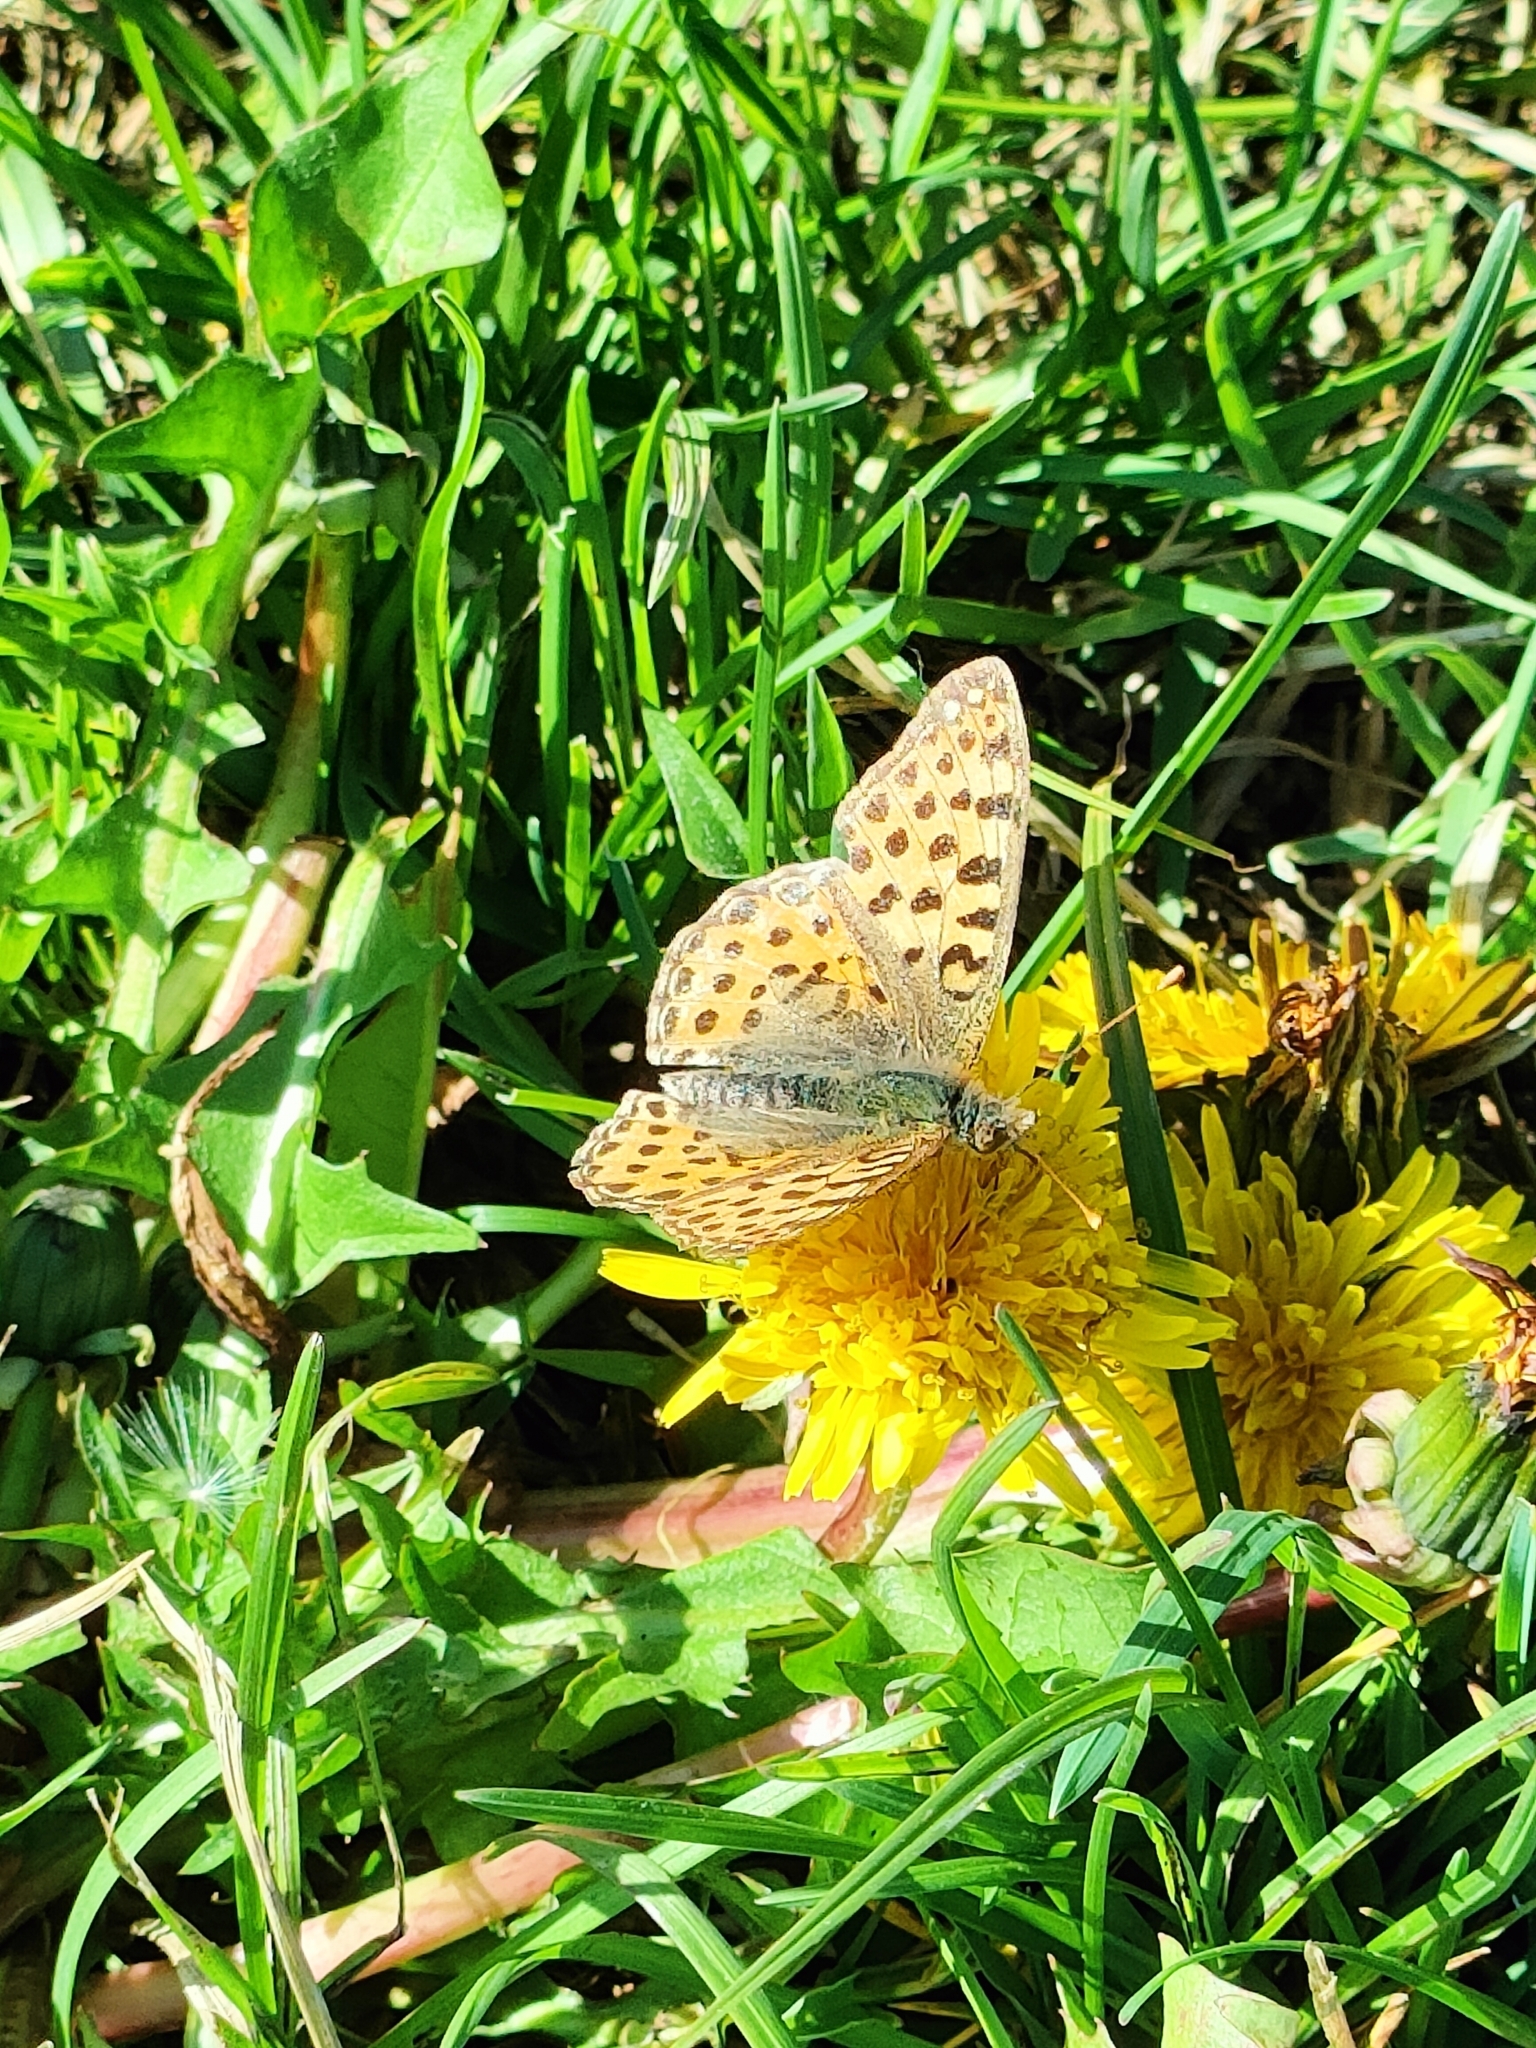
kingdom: Animalia
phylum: Arthropoda
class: Insecta
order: Lepidoptera
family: Nymphalidae
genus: Issoria
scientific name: Issoria lathonia
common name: Queen of spain fritillary
